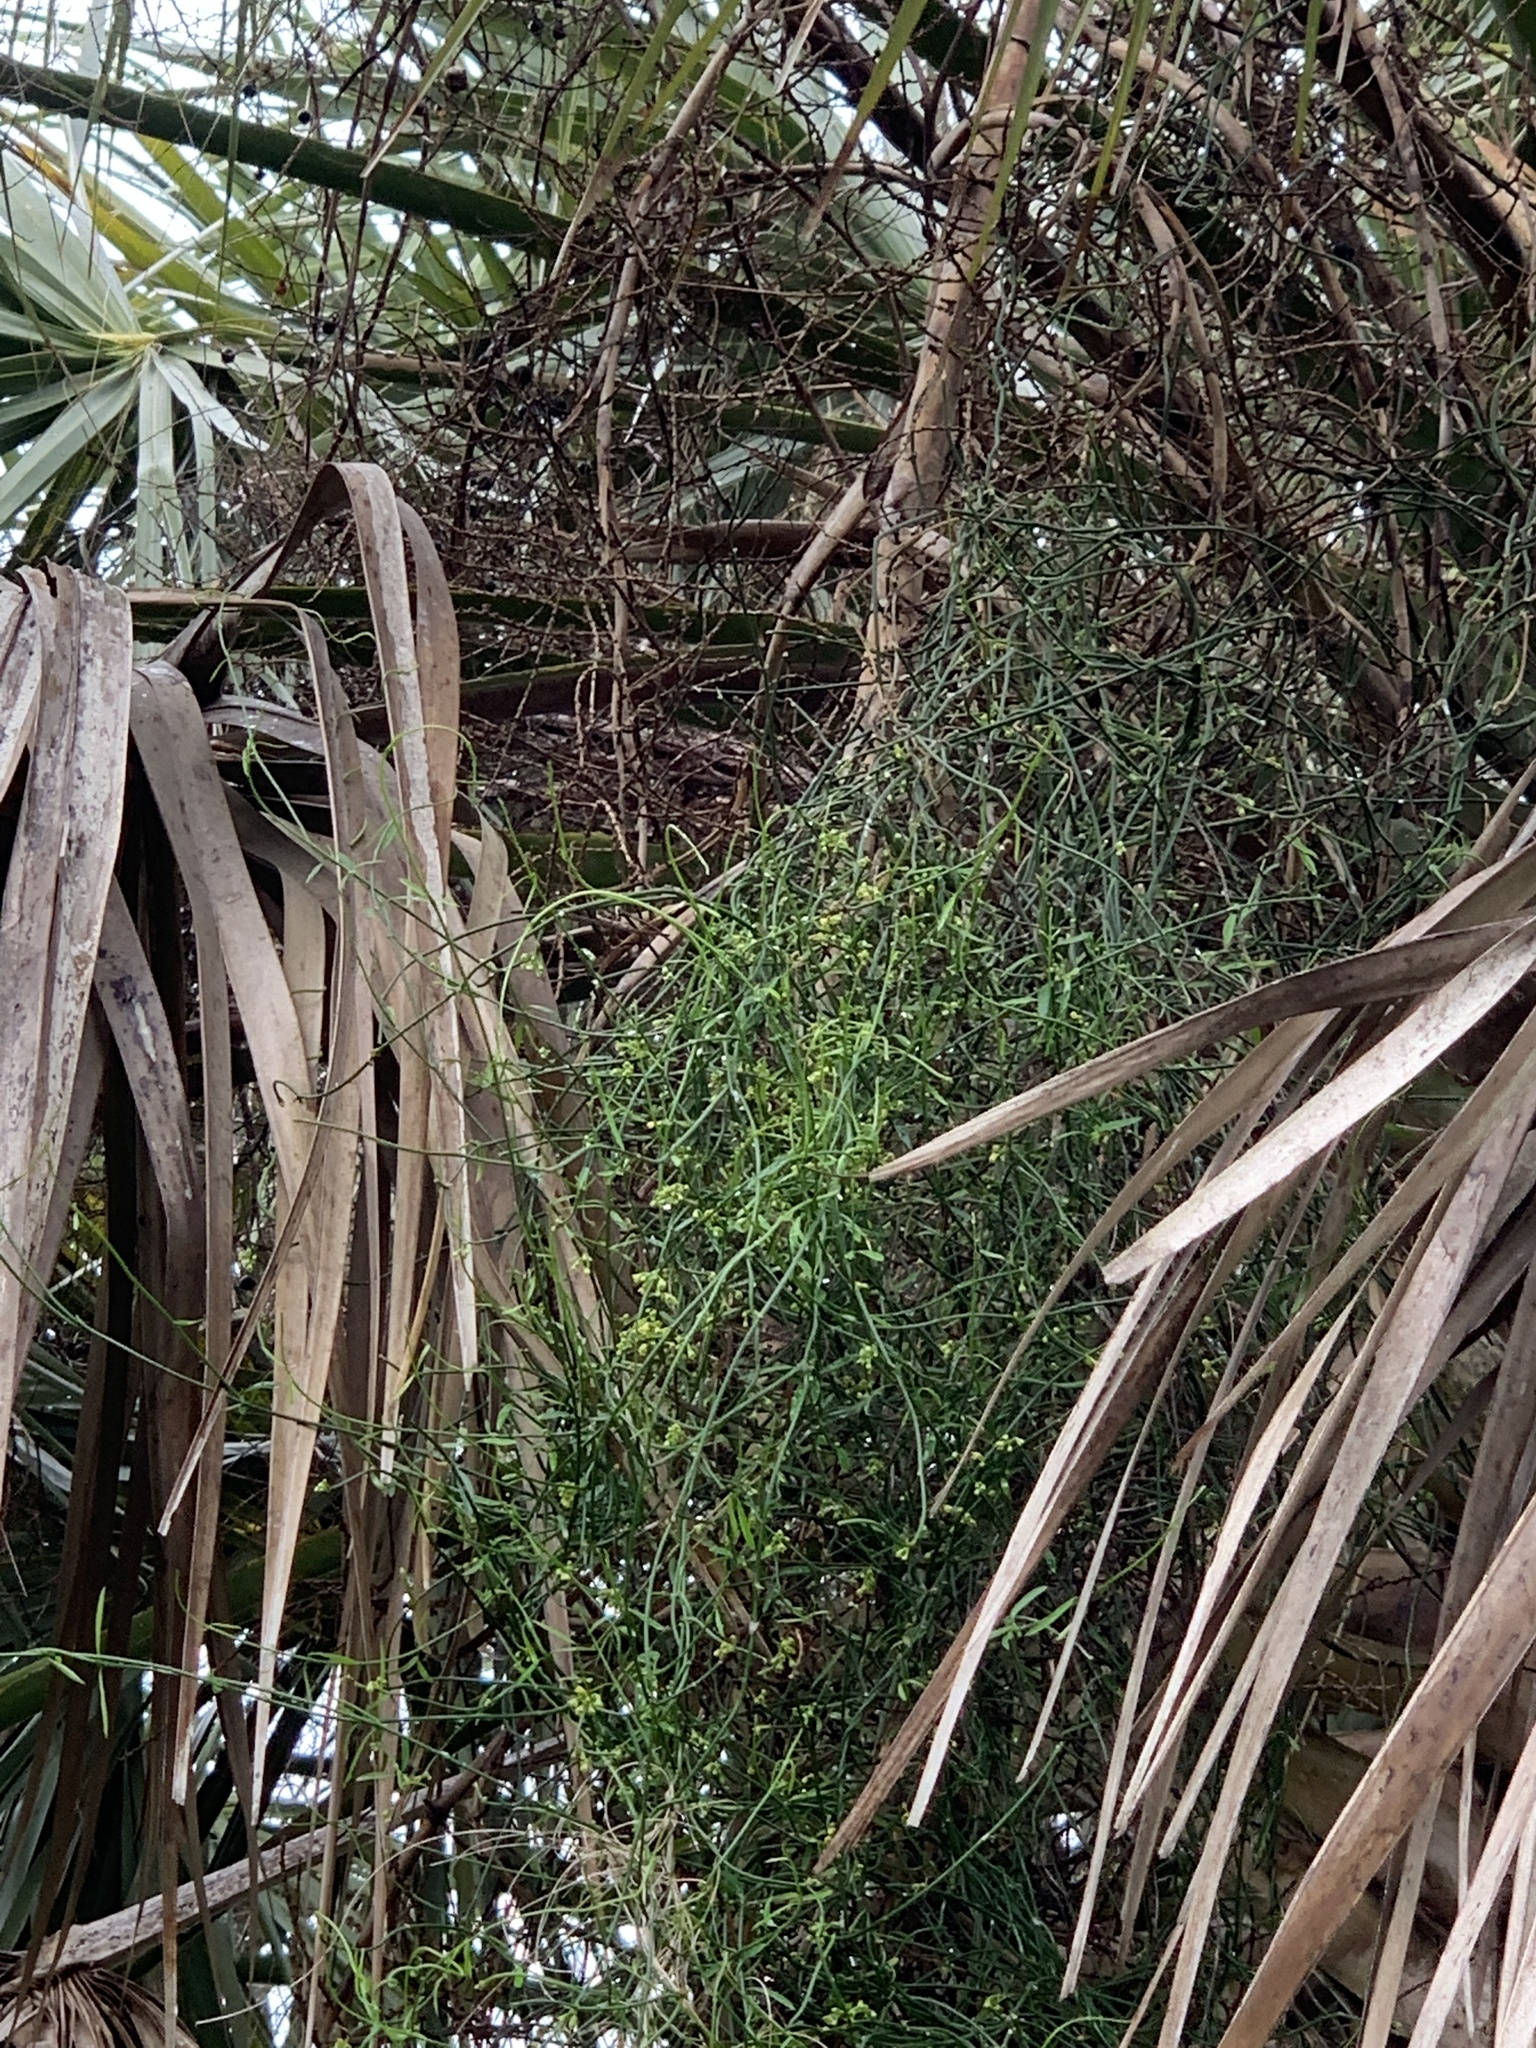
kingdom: Plantae
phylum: Tracheophyta
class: Magnoliopsida
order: Gentianales
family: Apocynaceae
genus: Orthosia
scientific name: Orthosia scoparia
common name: Leafless swallow-wort
